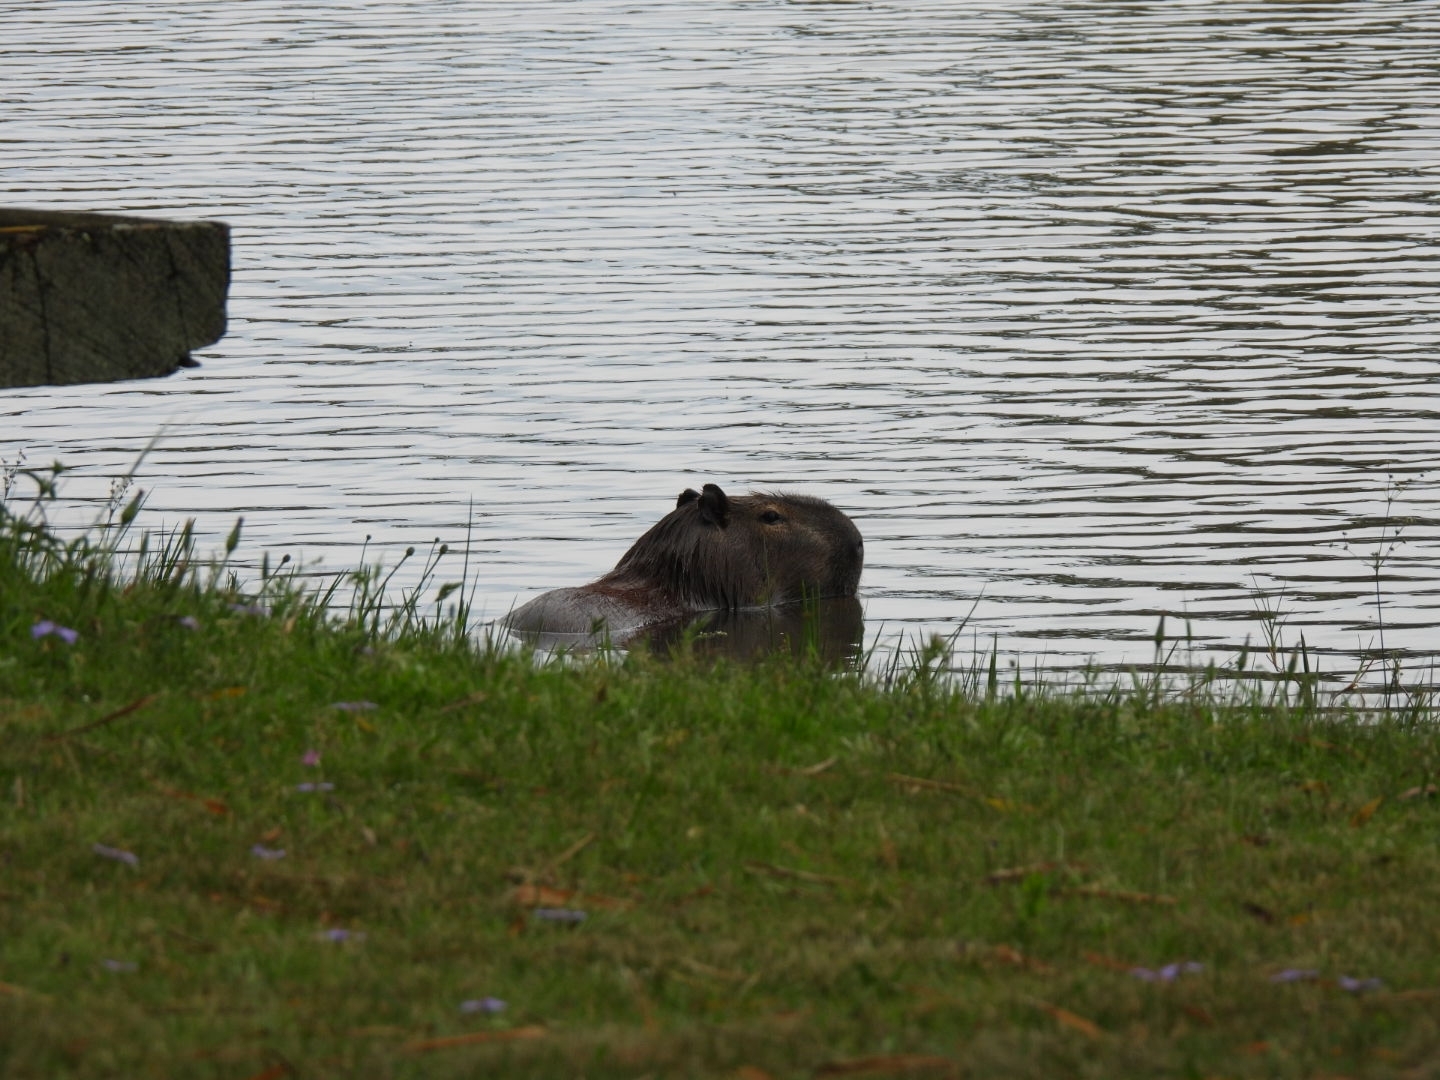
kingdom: Animalia
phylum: Chordata
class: Mammalia
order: Rodentia
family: Caviidae
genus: Hydrochoerus
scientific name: Hydrochoerus hydrochaeris
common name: Capybara
